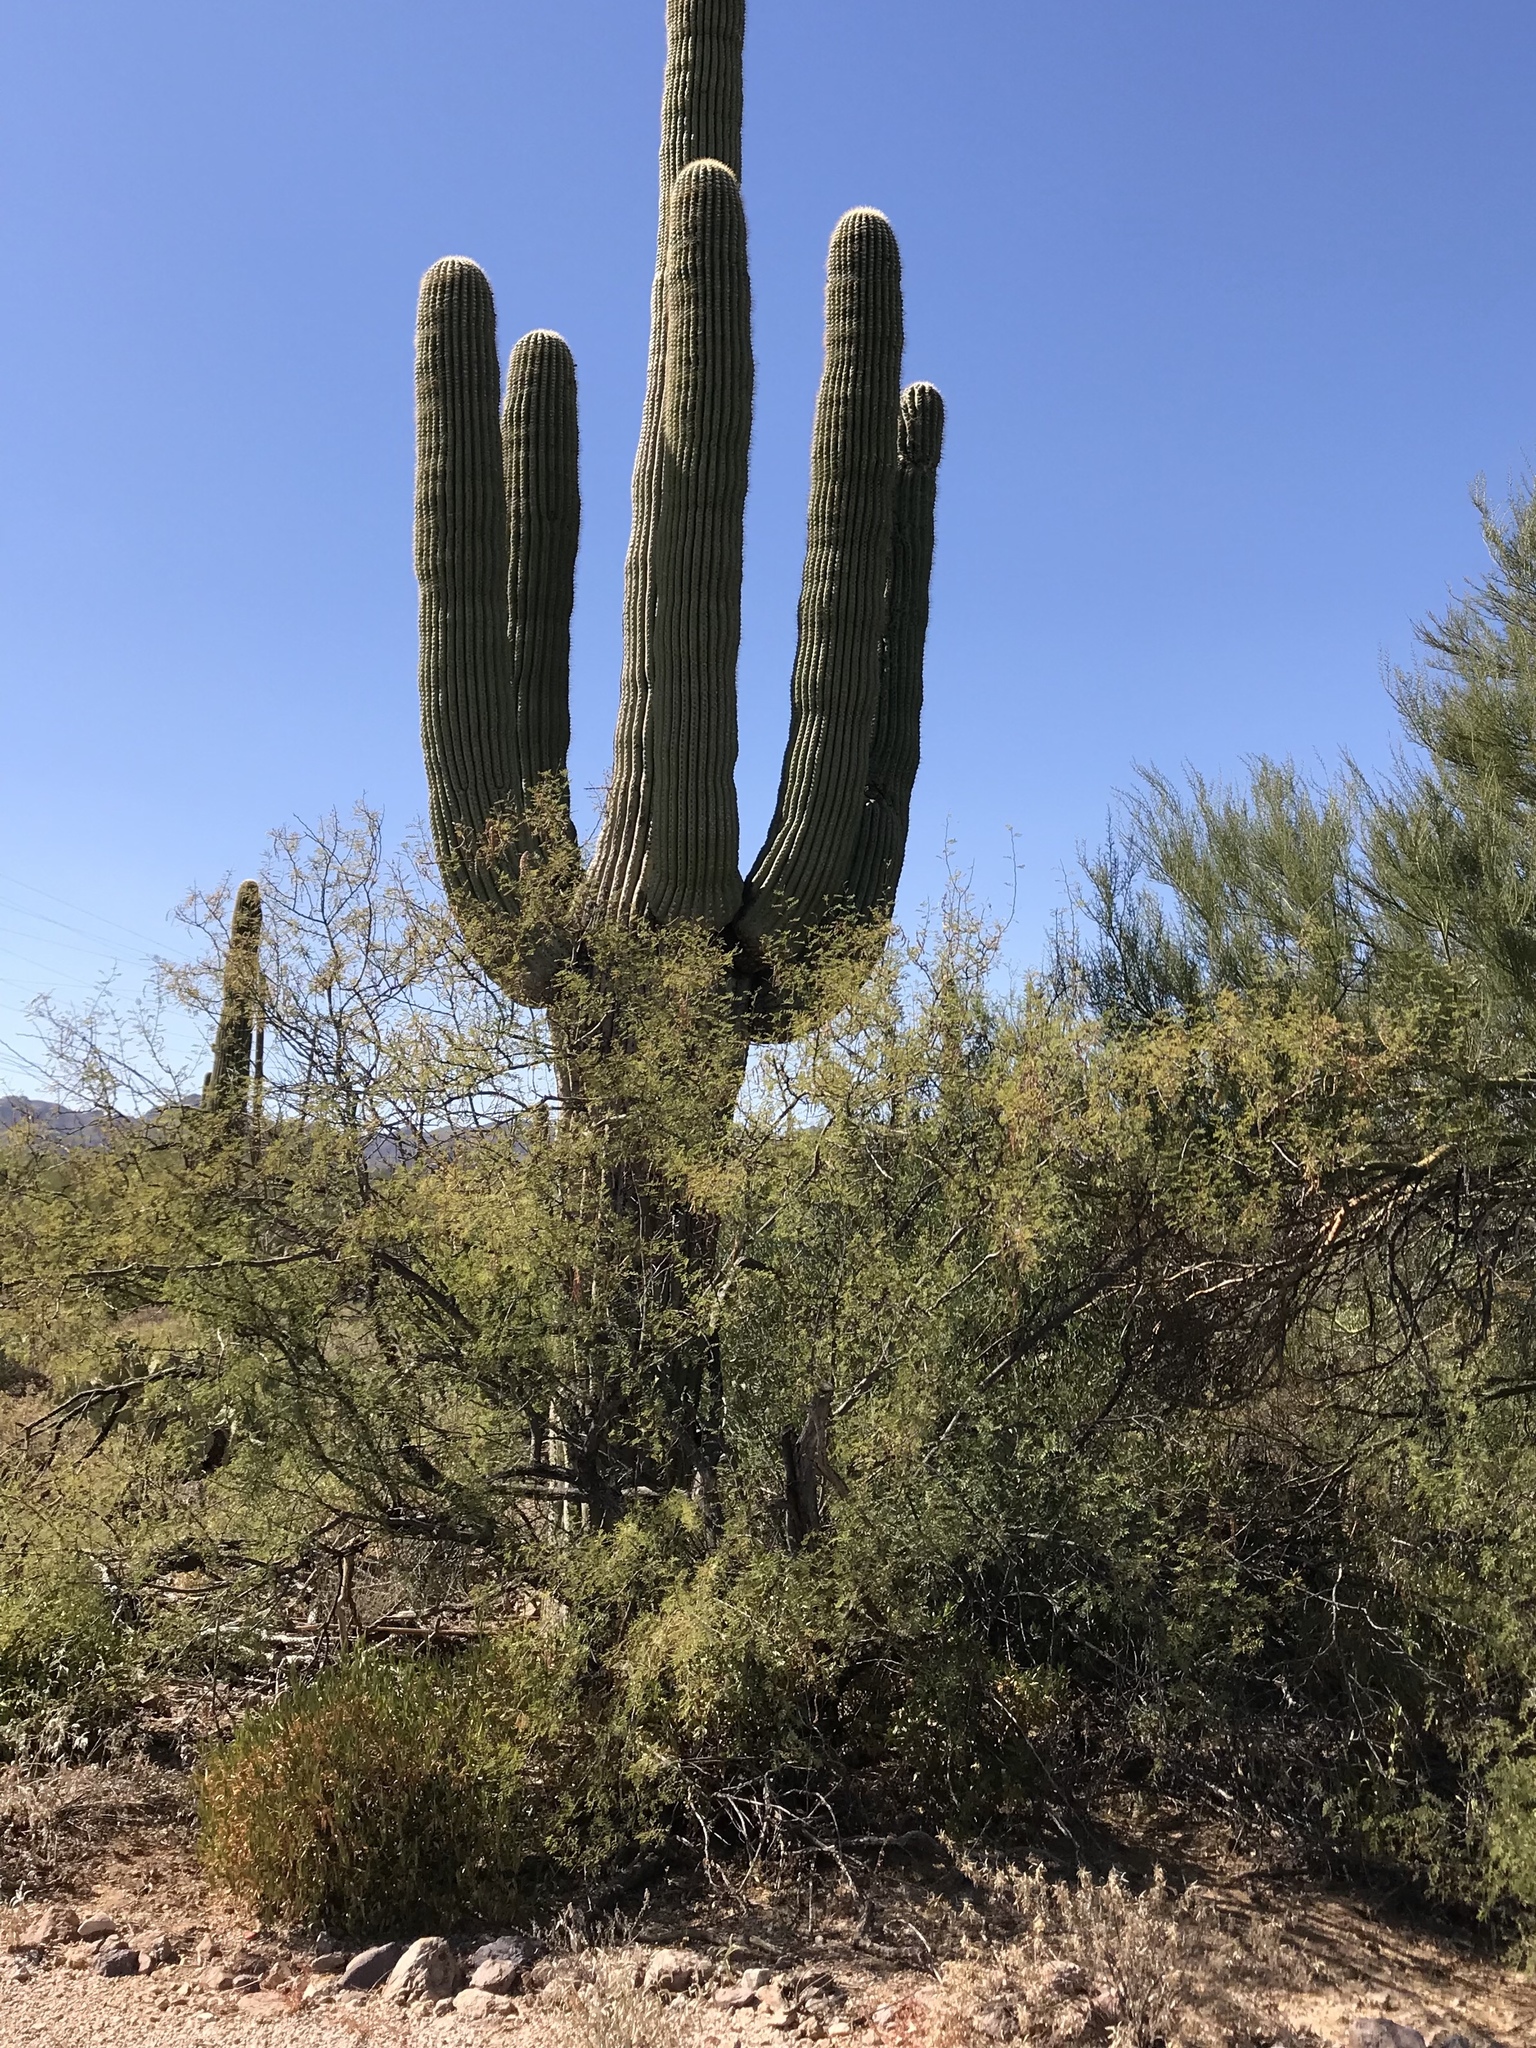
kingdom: Plantae
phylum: Tracheophyta
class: Magnoliopsida
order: Fabales
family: Fabaceae
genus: Vachellia
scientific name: Vachellia constricta
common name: Mescat acacia
